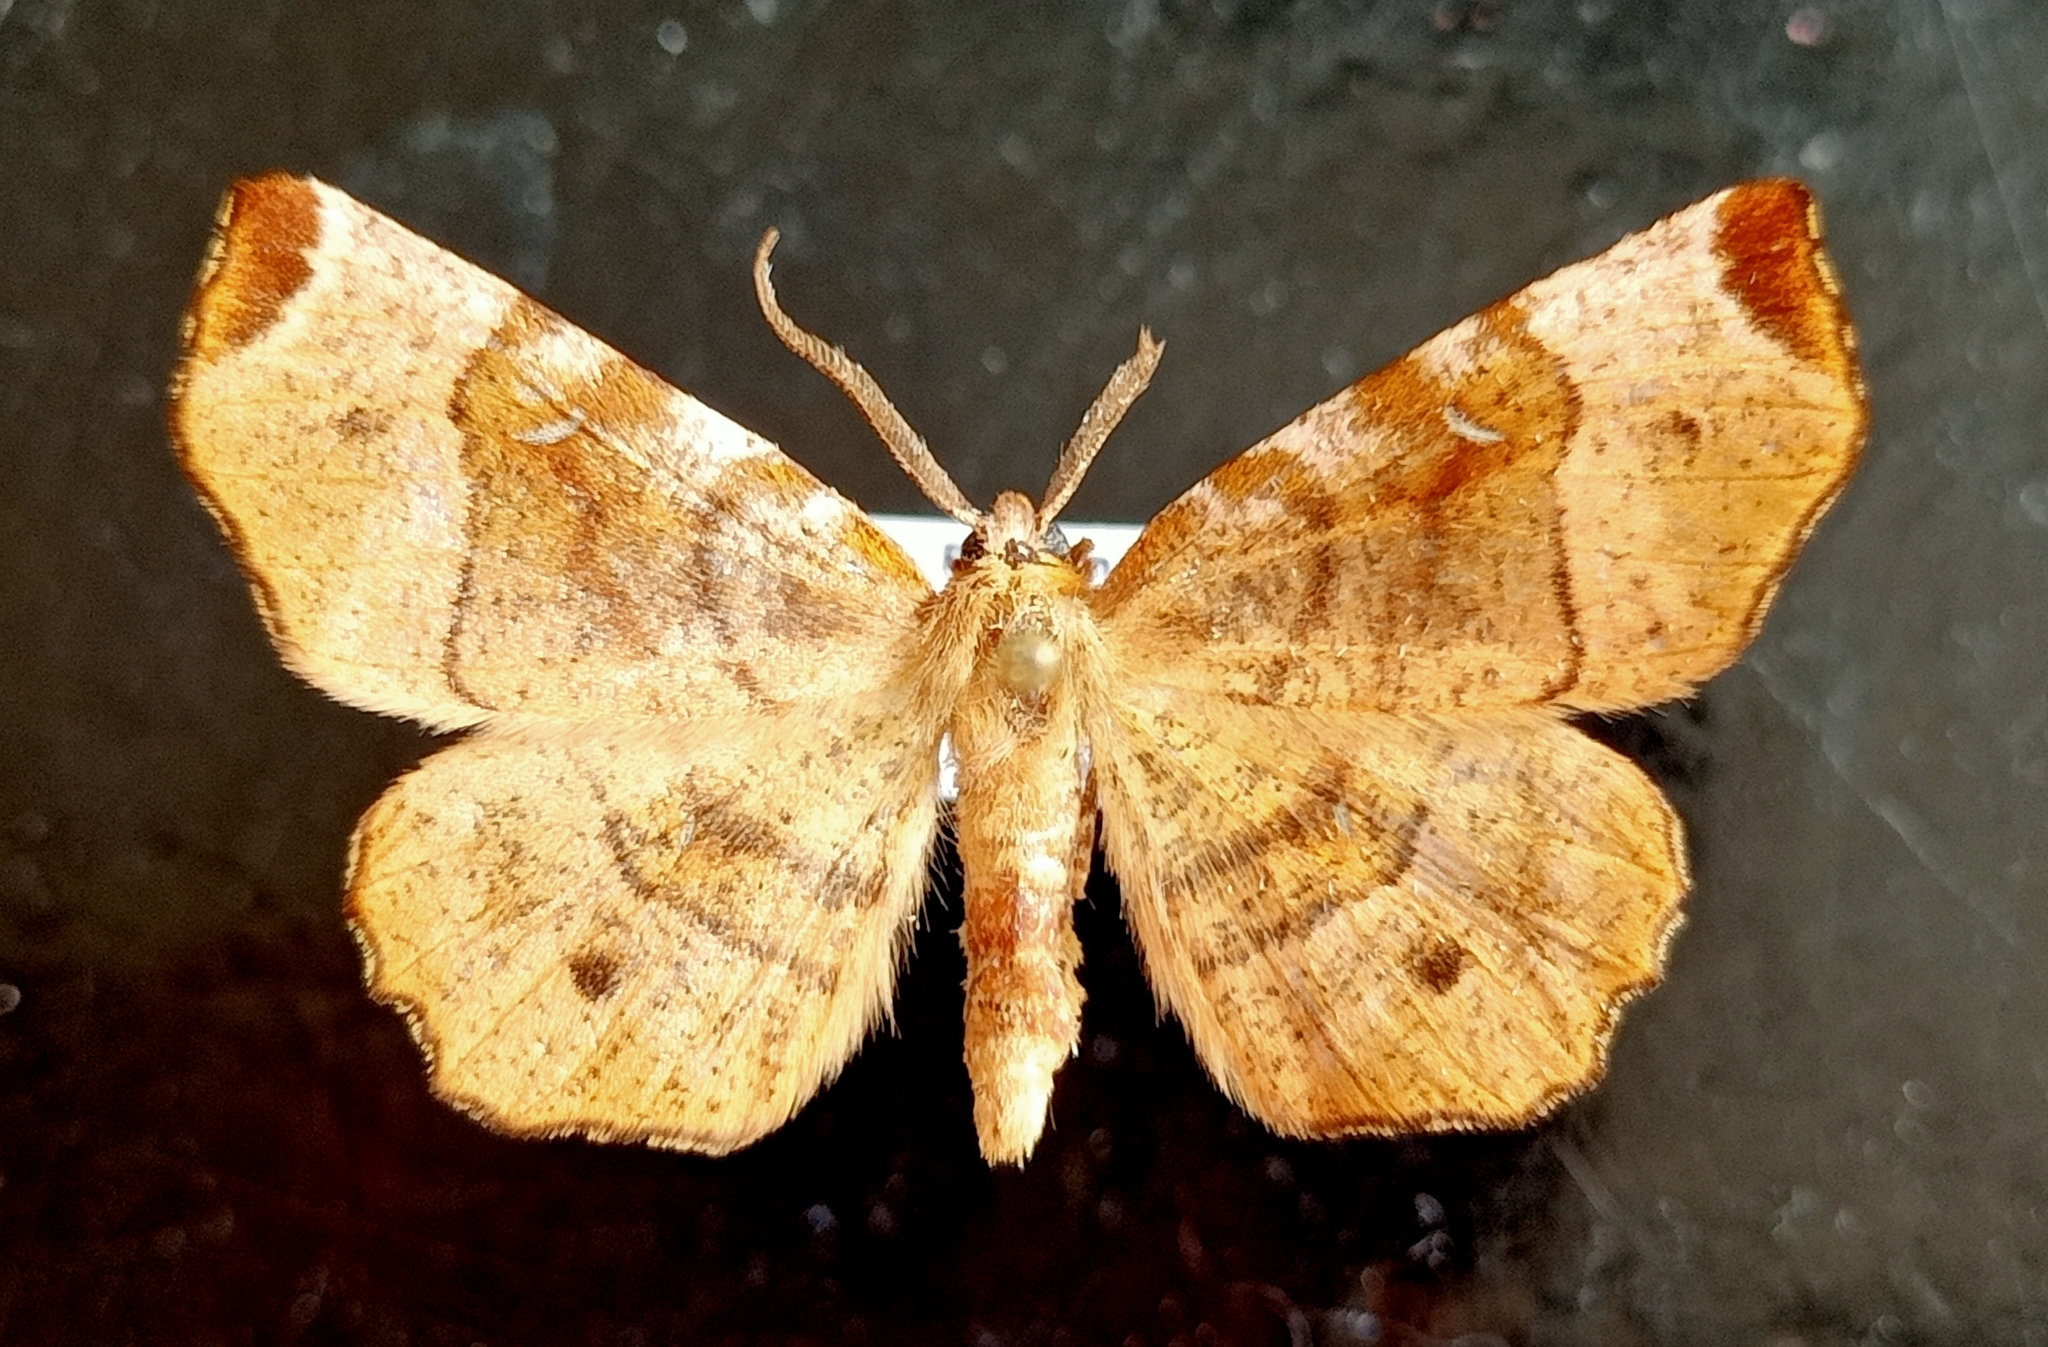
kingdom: Animalia
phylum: Arthropoda
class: Insecta
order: Lepidoptera
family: Geometridae
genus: Selenia
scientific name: Selenia tetralunaria
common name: Purple thorn
